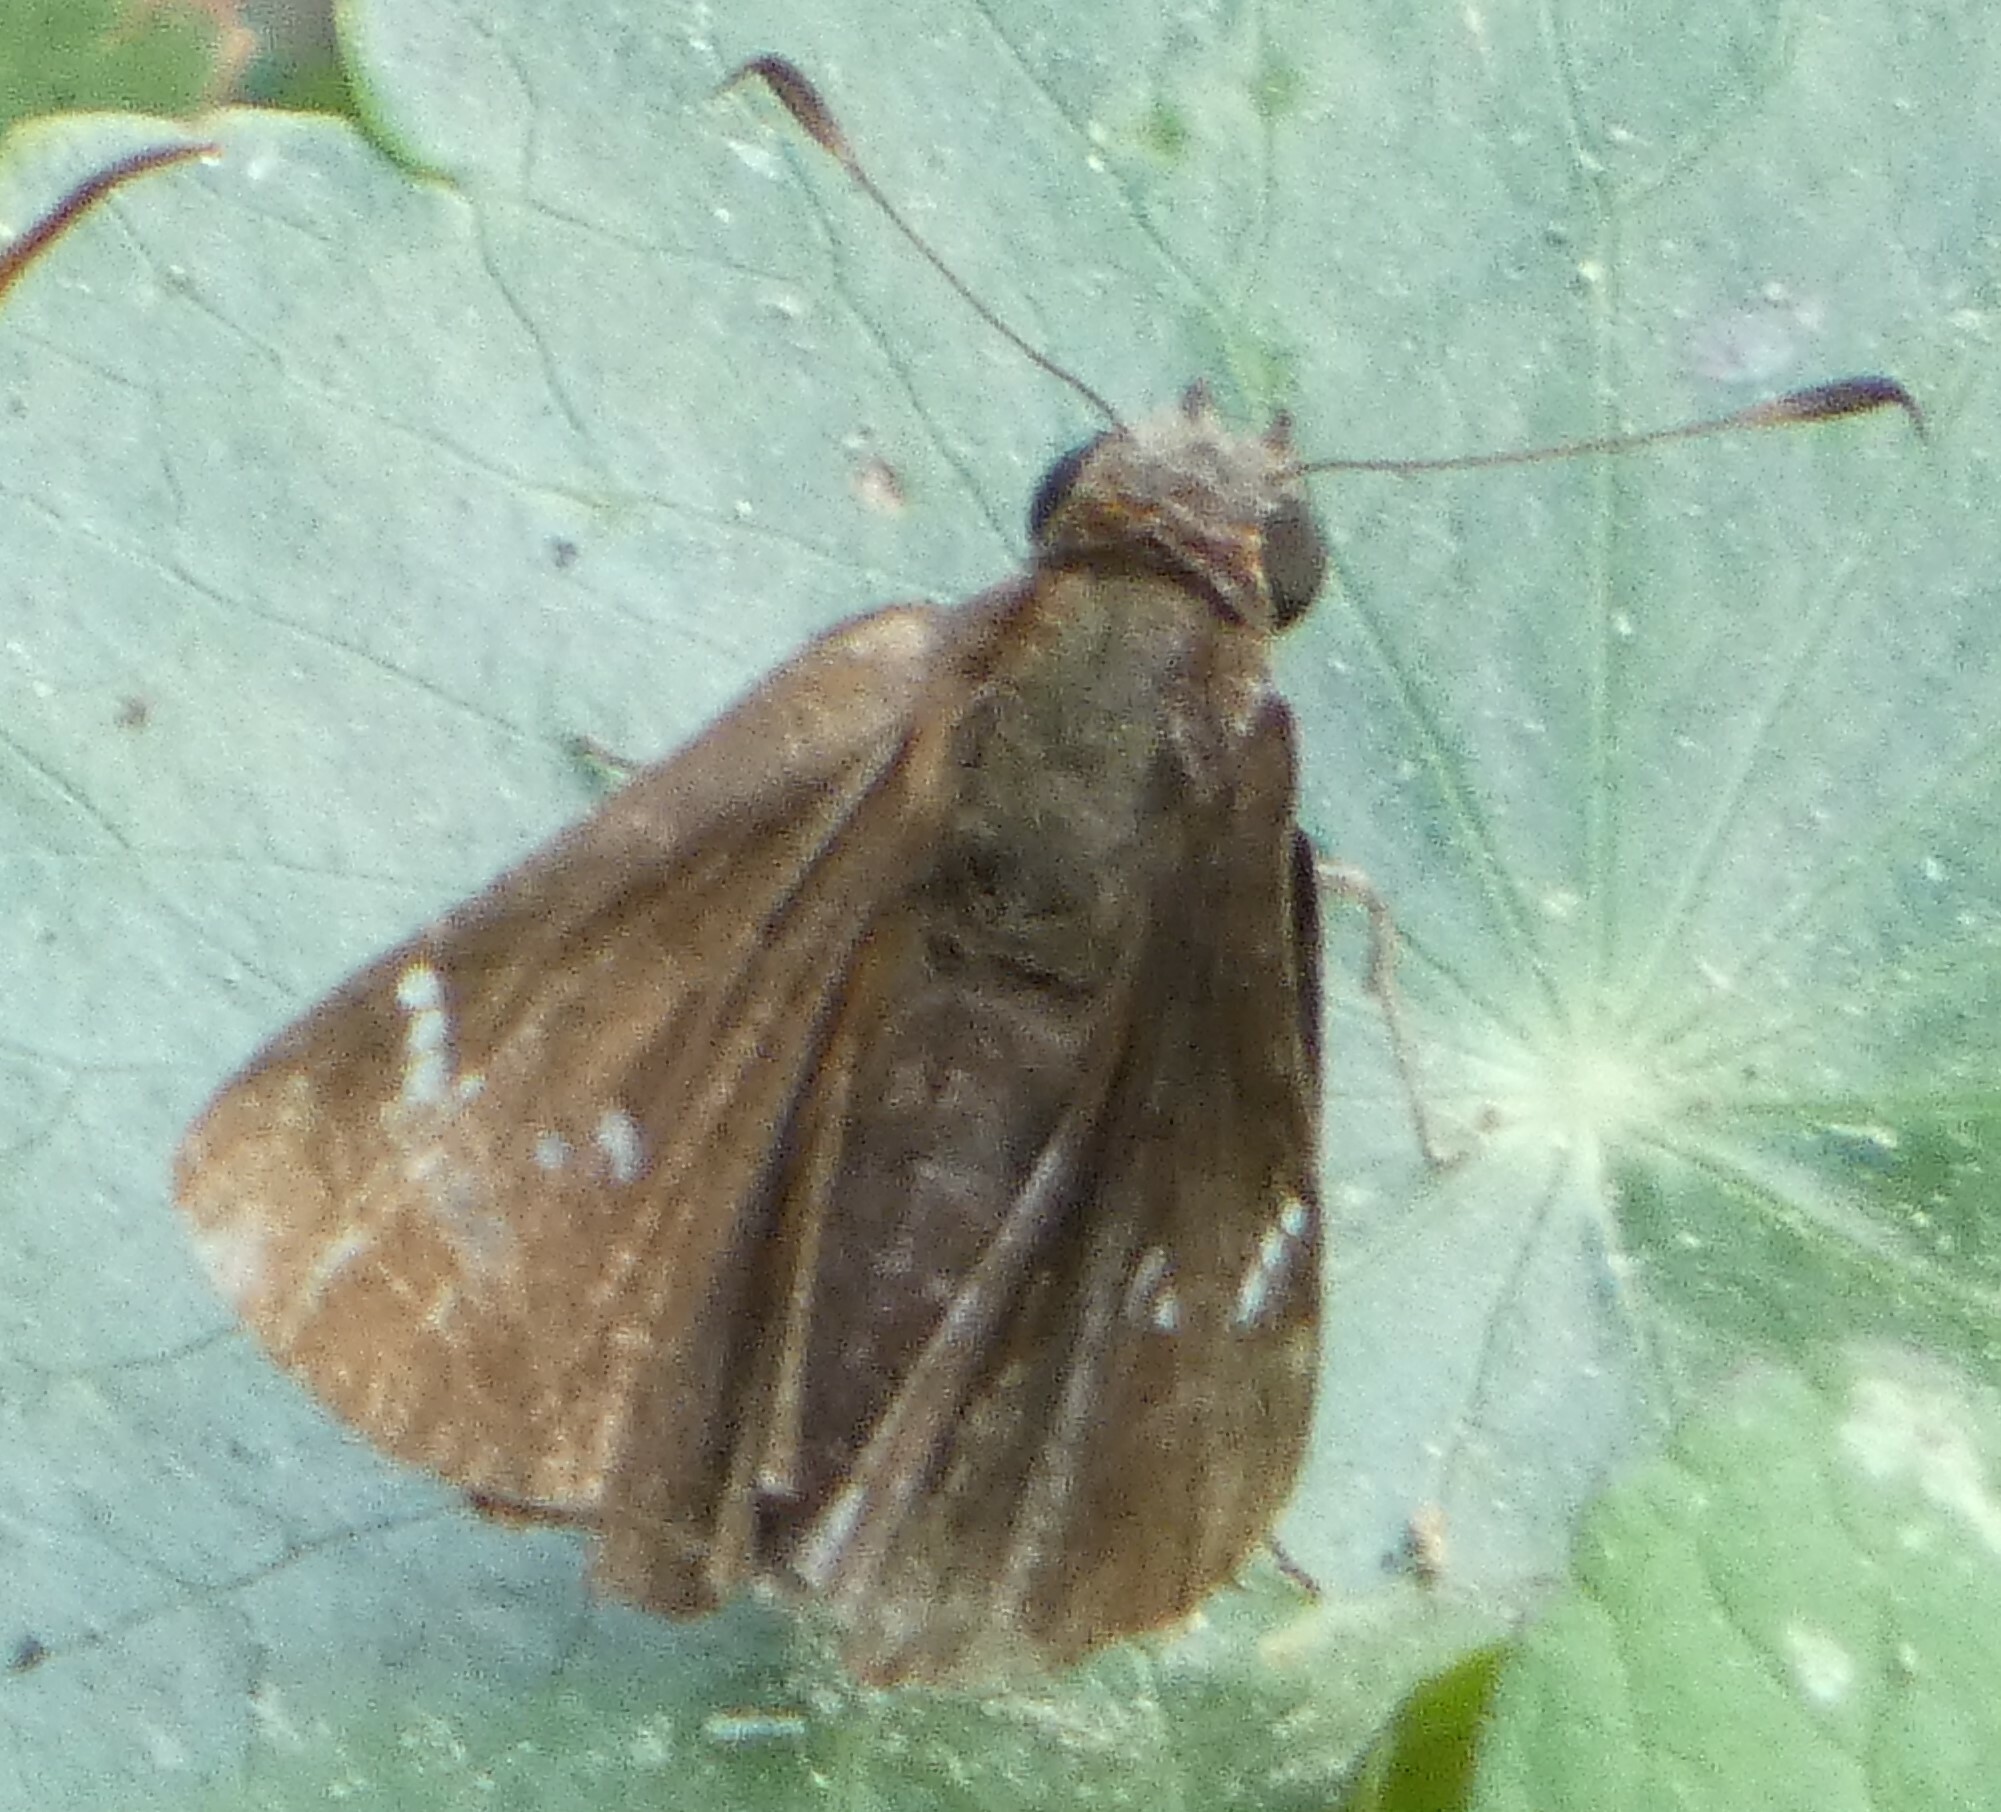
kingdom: Animalia
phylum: Arthropoda
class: Insecta
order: Lepidoptera
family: Hesperiidae
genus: Lerema
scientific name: Lerema accius
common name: Clouded skipper
